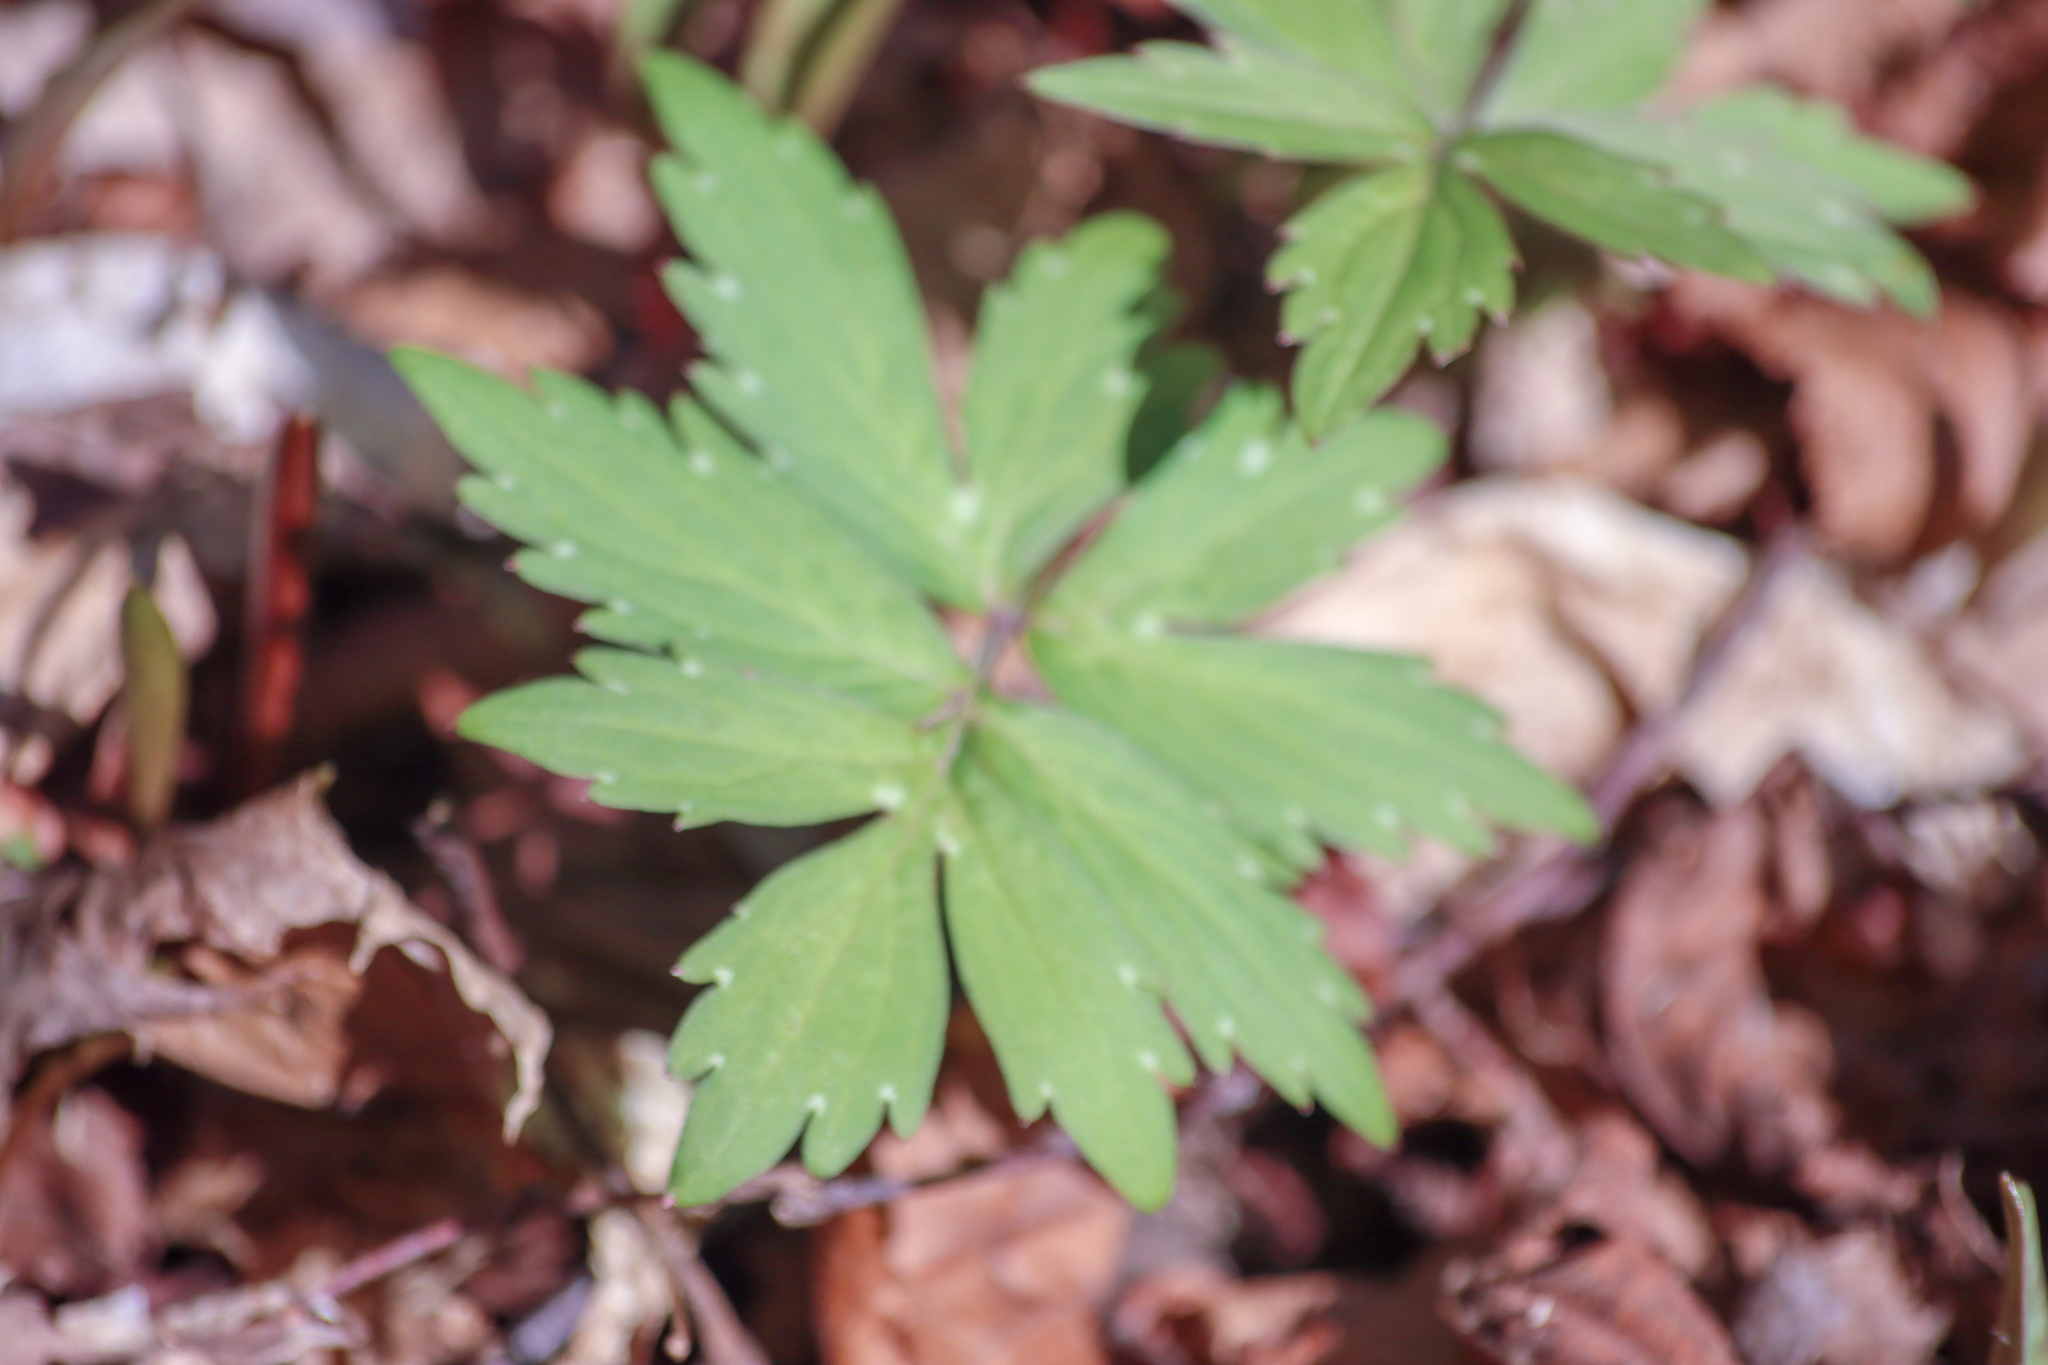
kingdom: Plantae
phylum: Tracheophyta
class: Magnoliopsida
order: Boraginales
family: Hydrophyllaceae
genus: Hydrophyllum
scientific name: Hydrophyllum virginianum
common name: Virginia waterleaf
